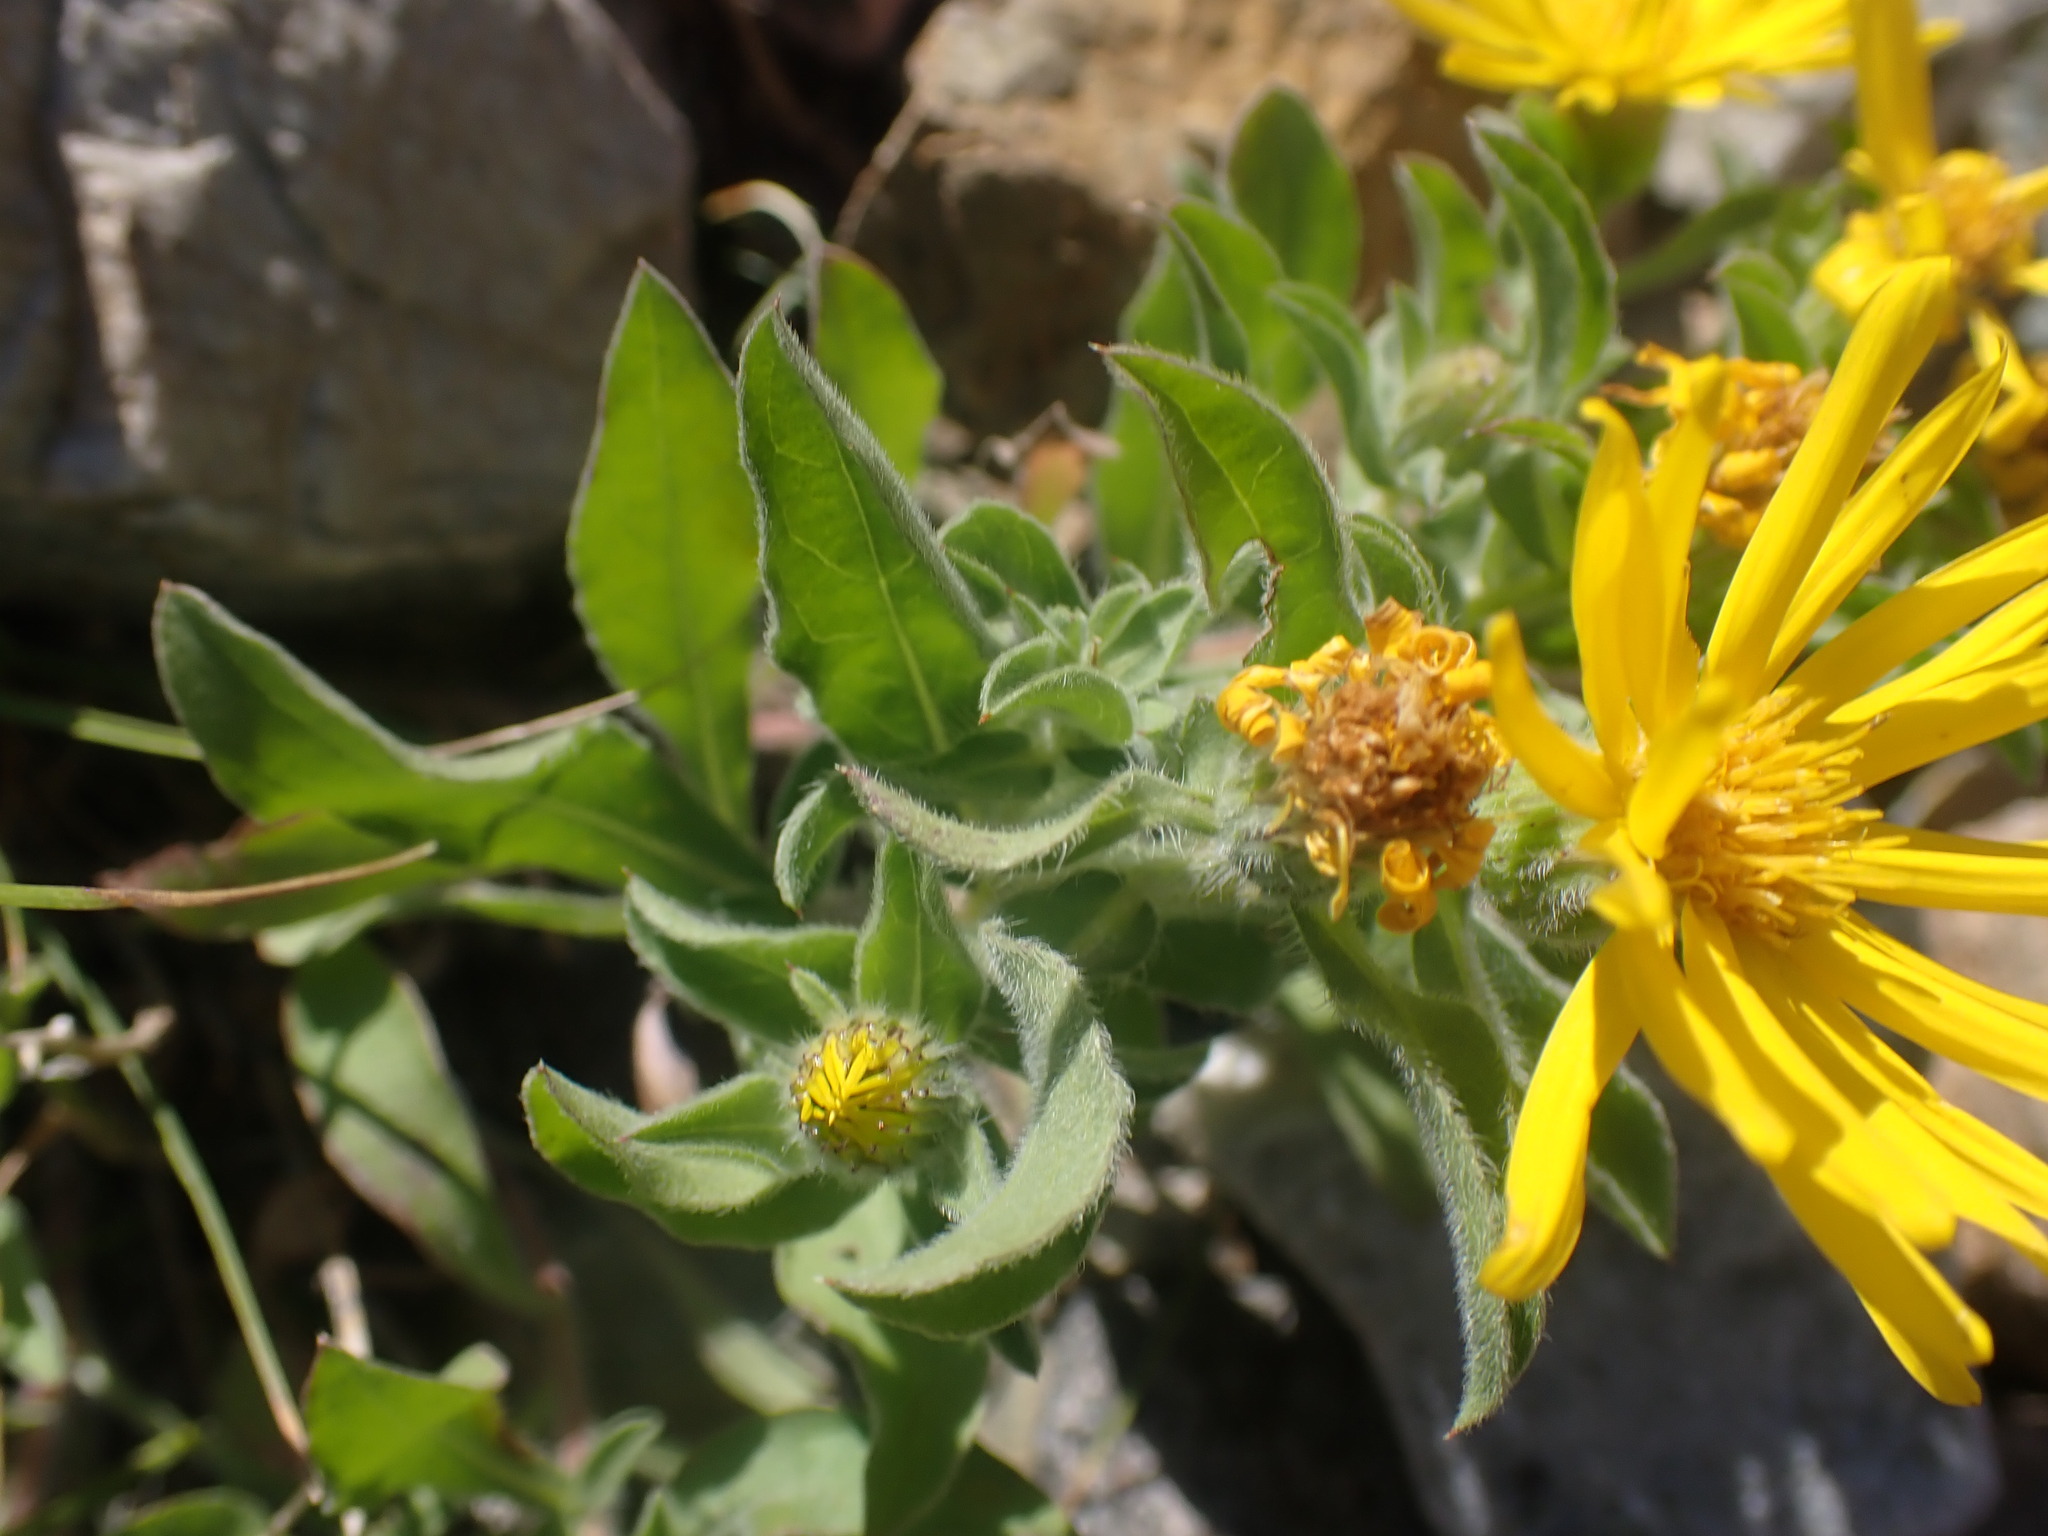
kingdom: Plantae
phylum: Tracheophyta
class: Magnoliopsida
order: Asterales
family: Asteraceae
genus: Heterotheca
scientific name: Heterotheca villosa
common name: Hairy false goldenaster
